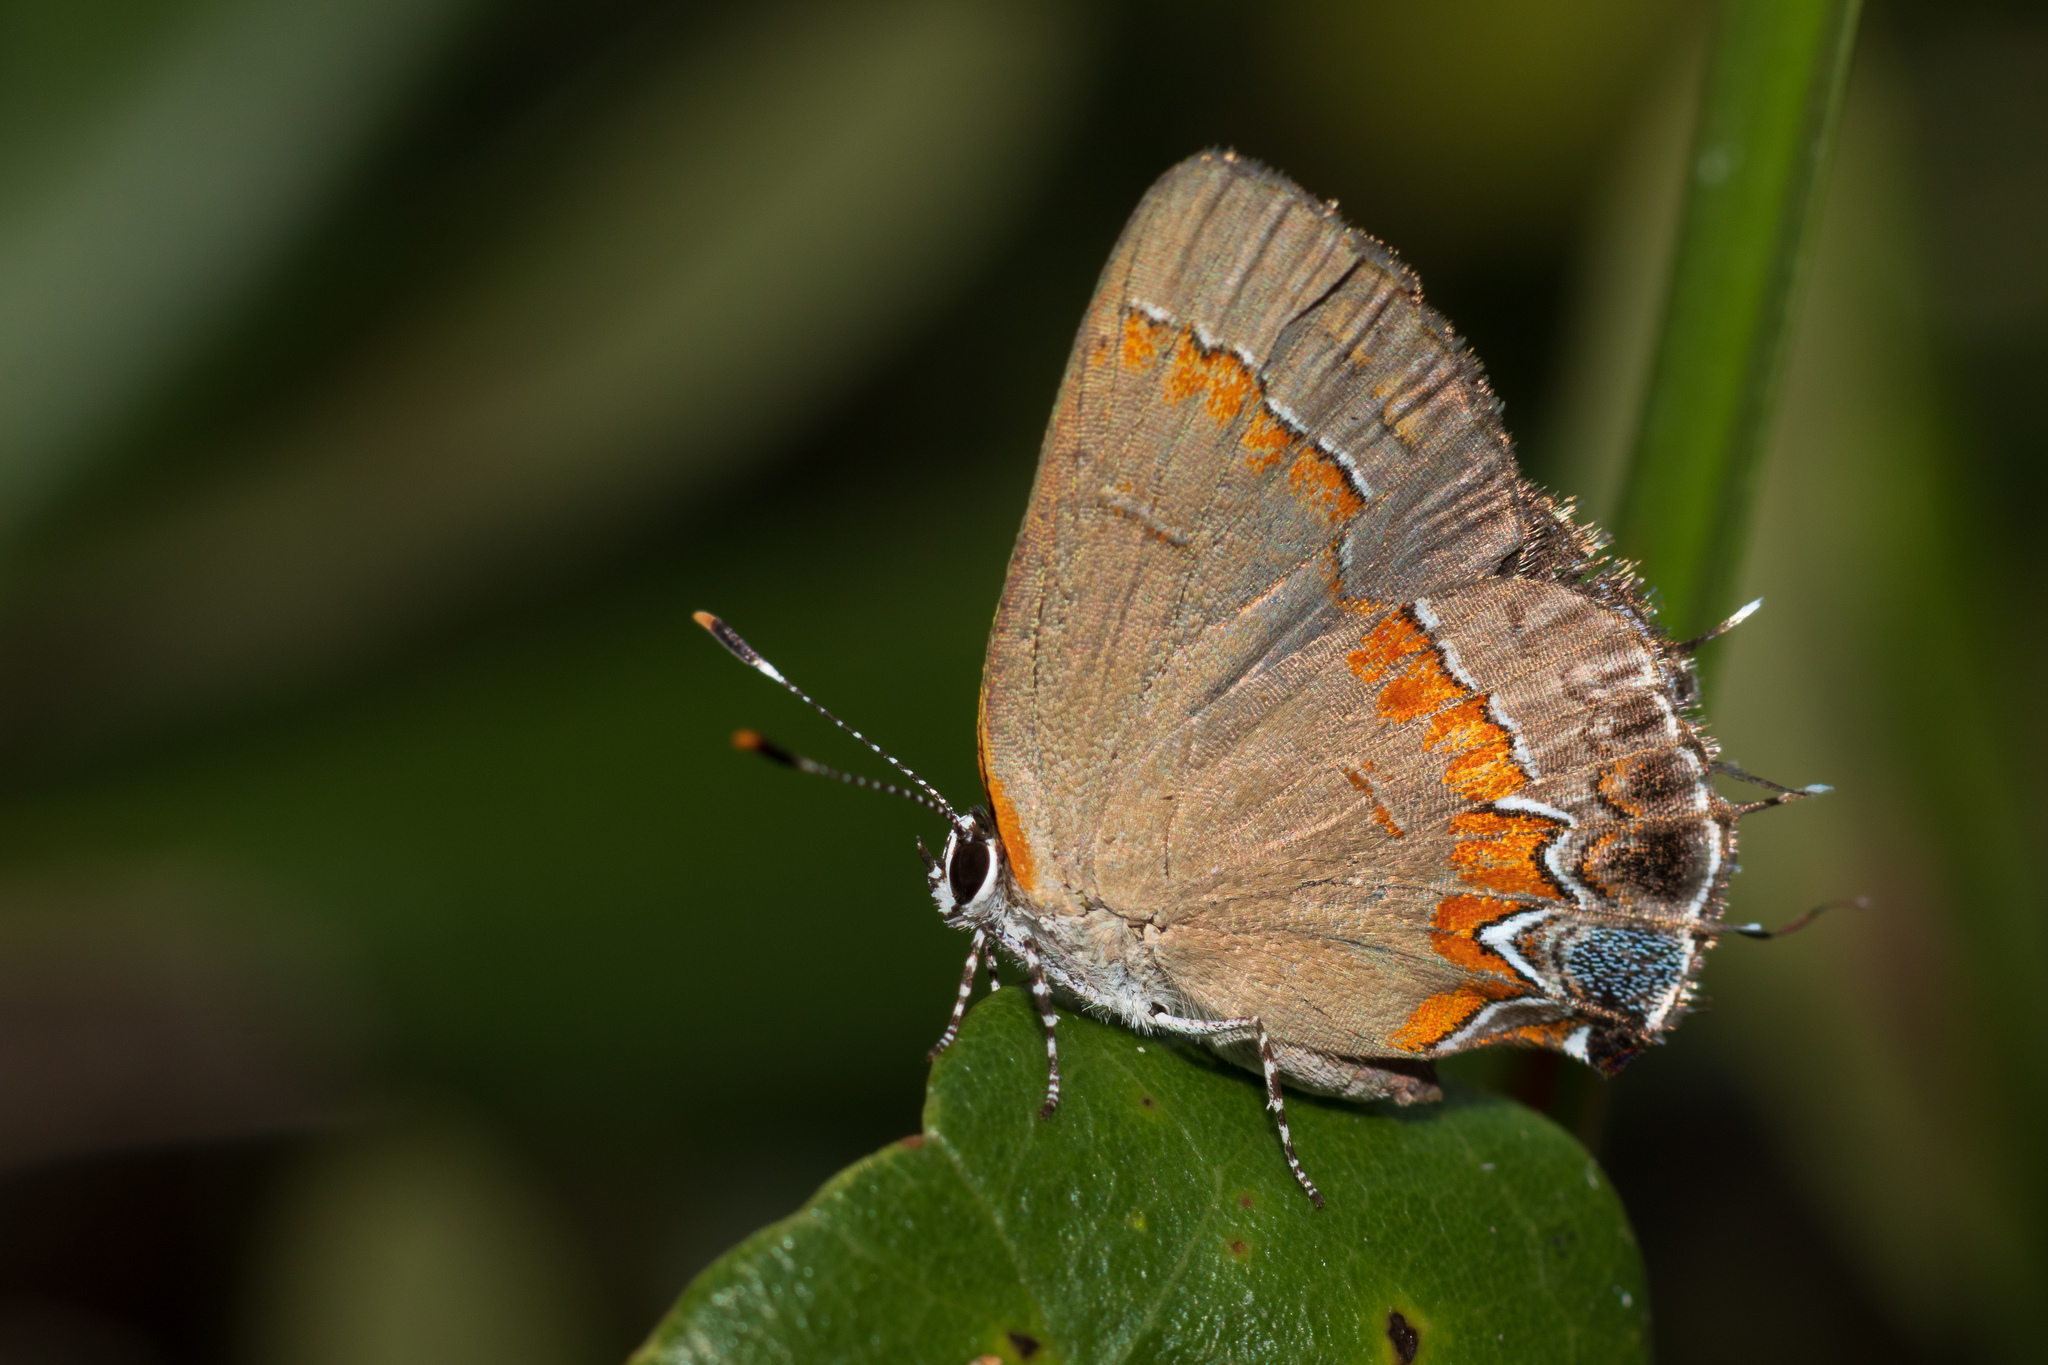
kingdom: Animalia
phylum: Arthropoda
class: Insecta
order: Lepidoptera
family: Lycaenidae
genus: Calycopis
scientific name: Calycopis cecrops
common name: Red-banded hairstreak
